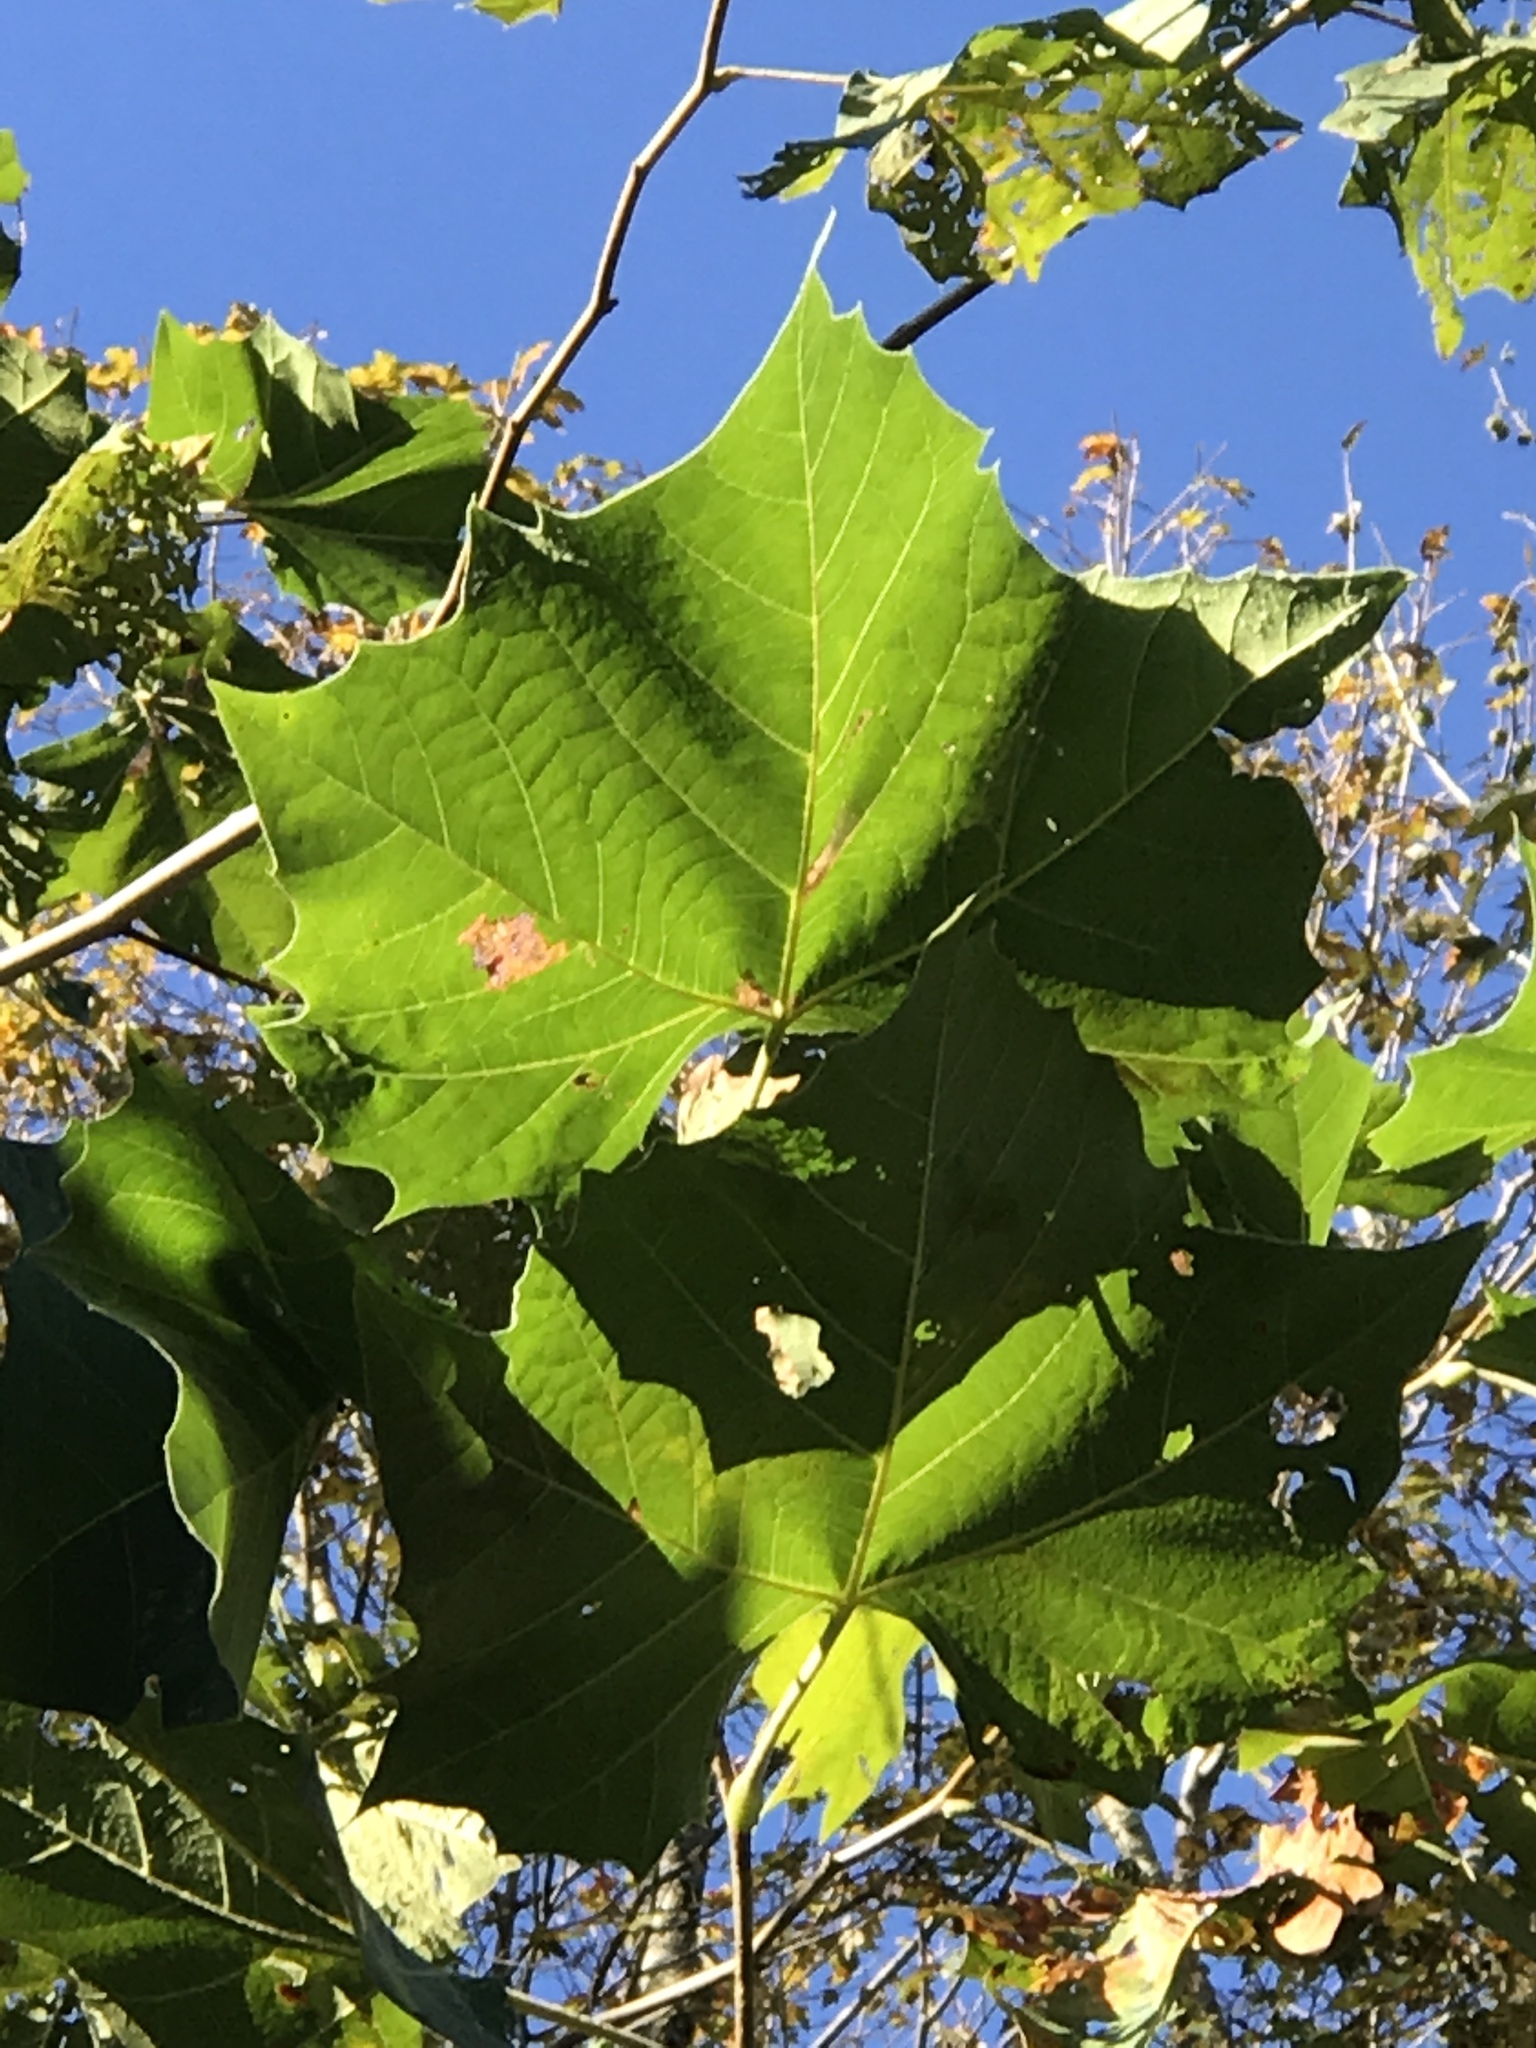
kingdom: Plantae
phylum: Tracheophyta
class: Magnoliopsida
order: Proteales
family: Platanaceae
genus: Platanus
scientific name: Platanus occidentalis
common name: American sycamore
